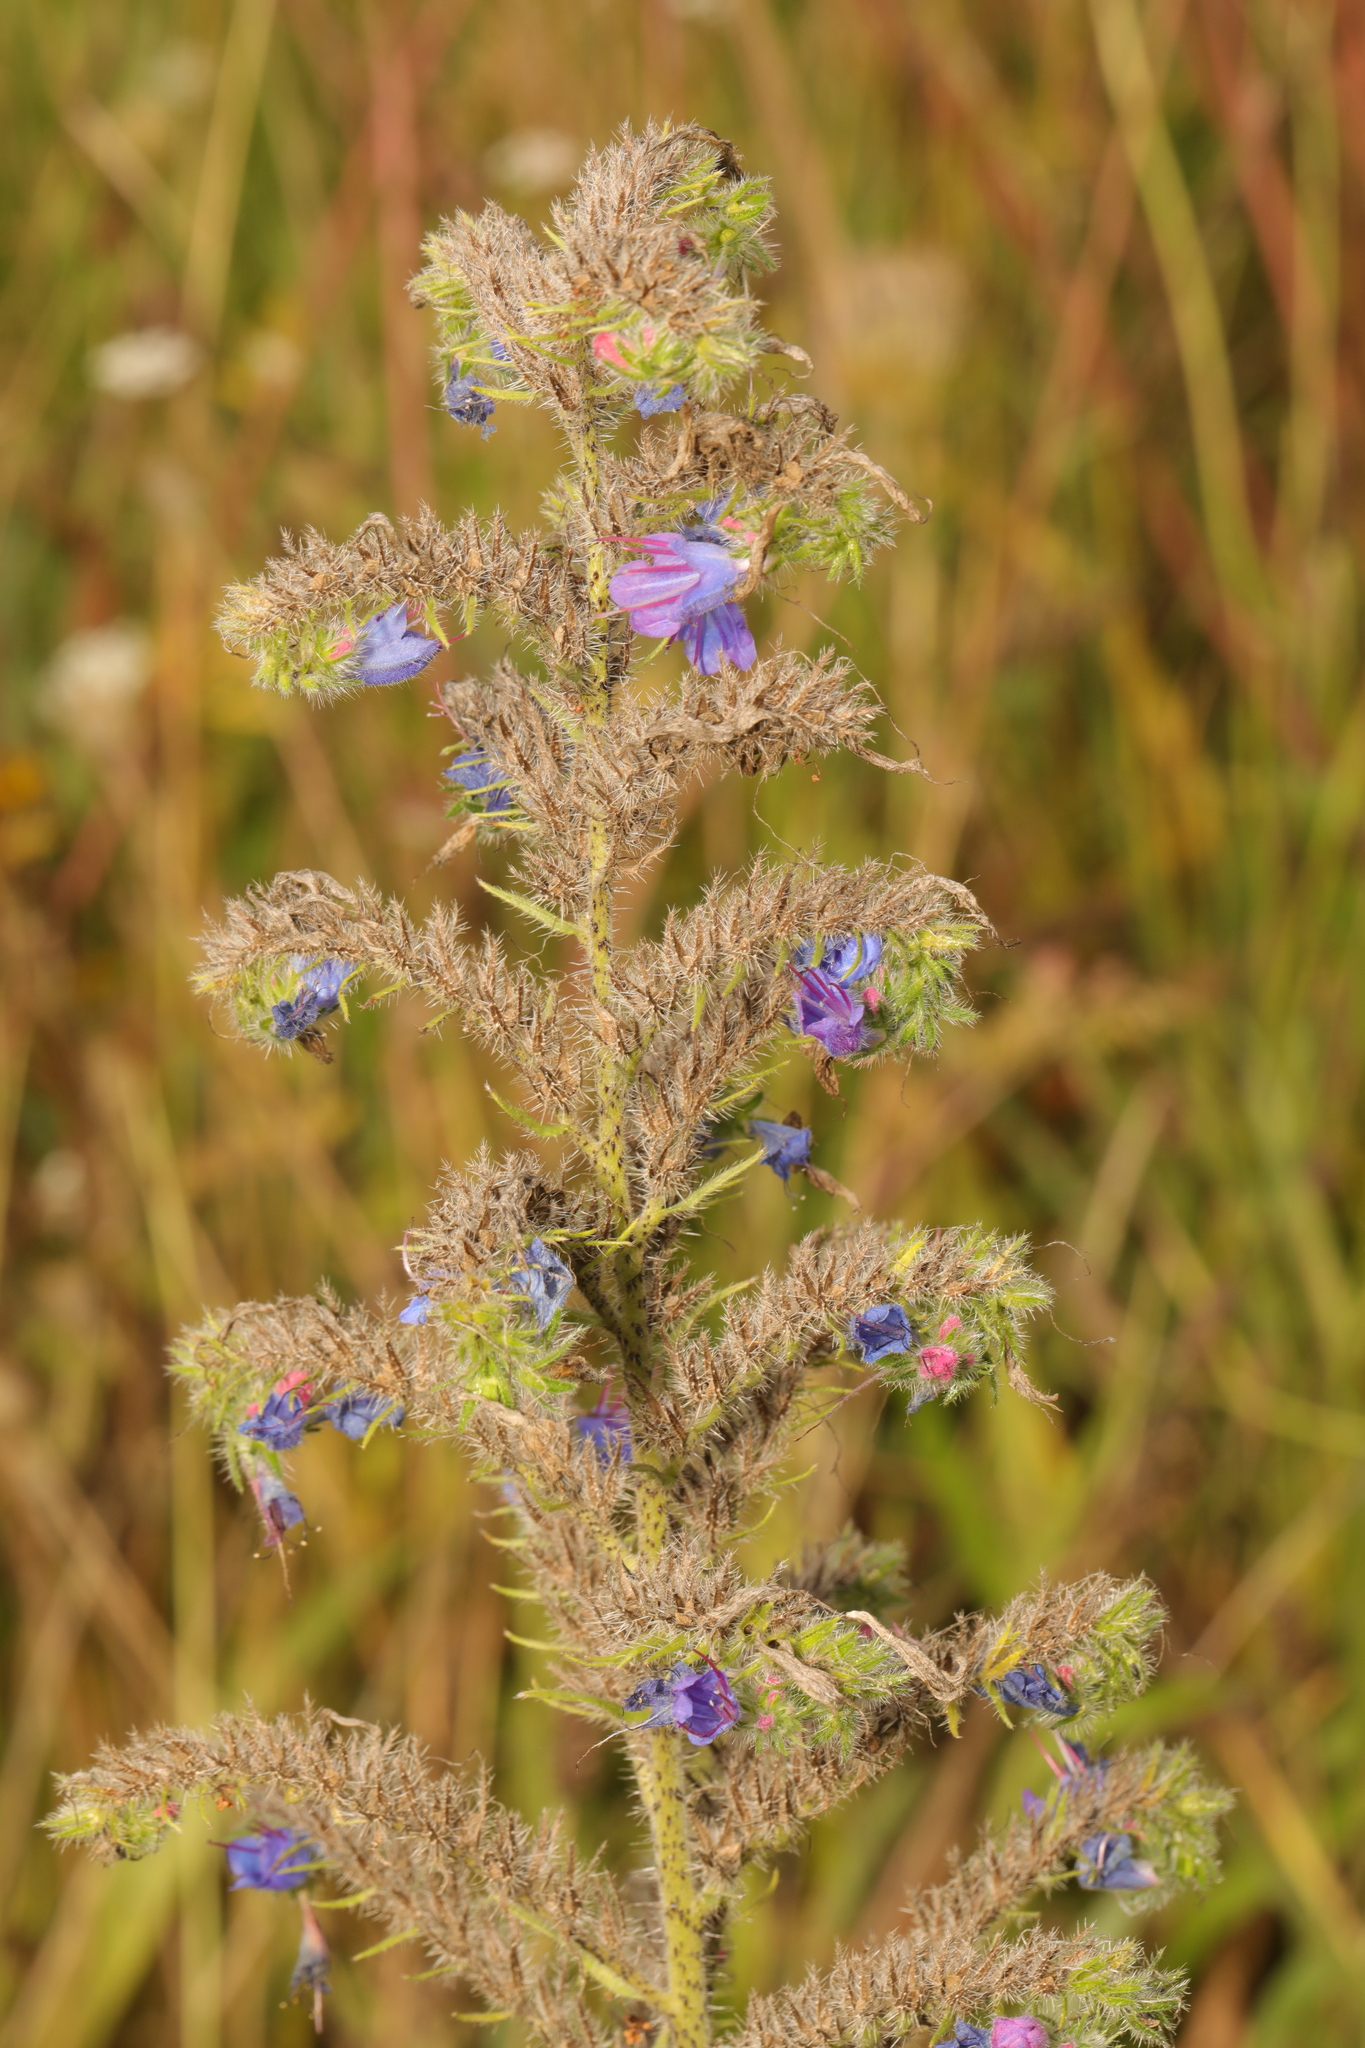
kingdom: Plantae
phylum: Tracheophyta
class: Magnoliopsida
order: Boraginales
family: Boraginaceae
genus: Echium
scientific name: Echium vulgare
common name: Common viper's bugloss
